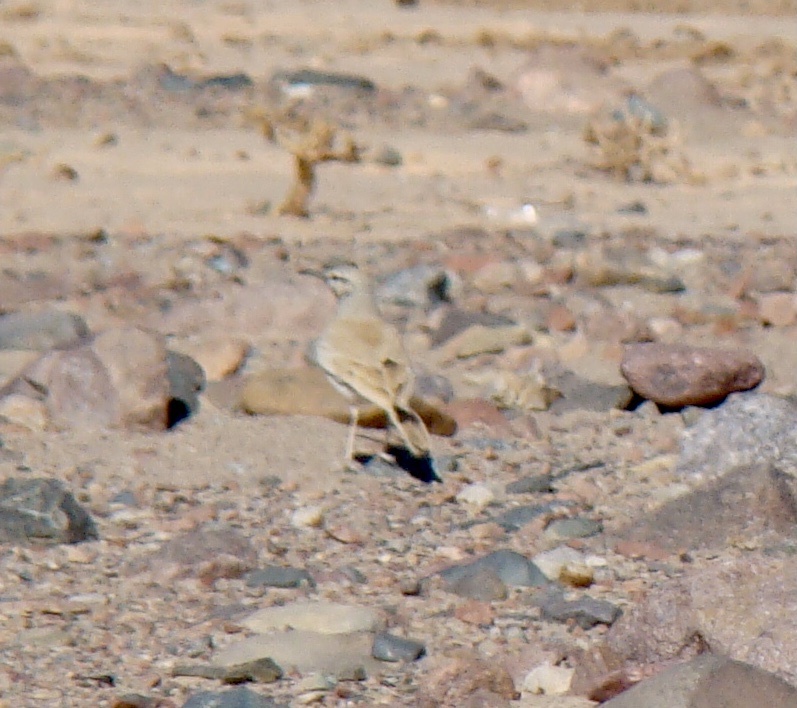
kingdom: Animalia
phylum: Chordata
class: Aves
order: Passeriformes
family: Alaudidae
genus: Alaemon
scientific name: Alaemon alaudipes
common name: Greater hoopoe-lark
